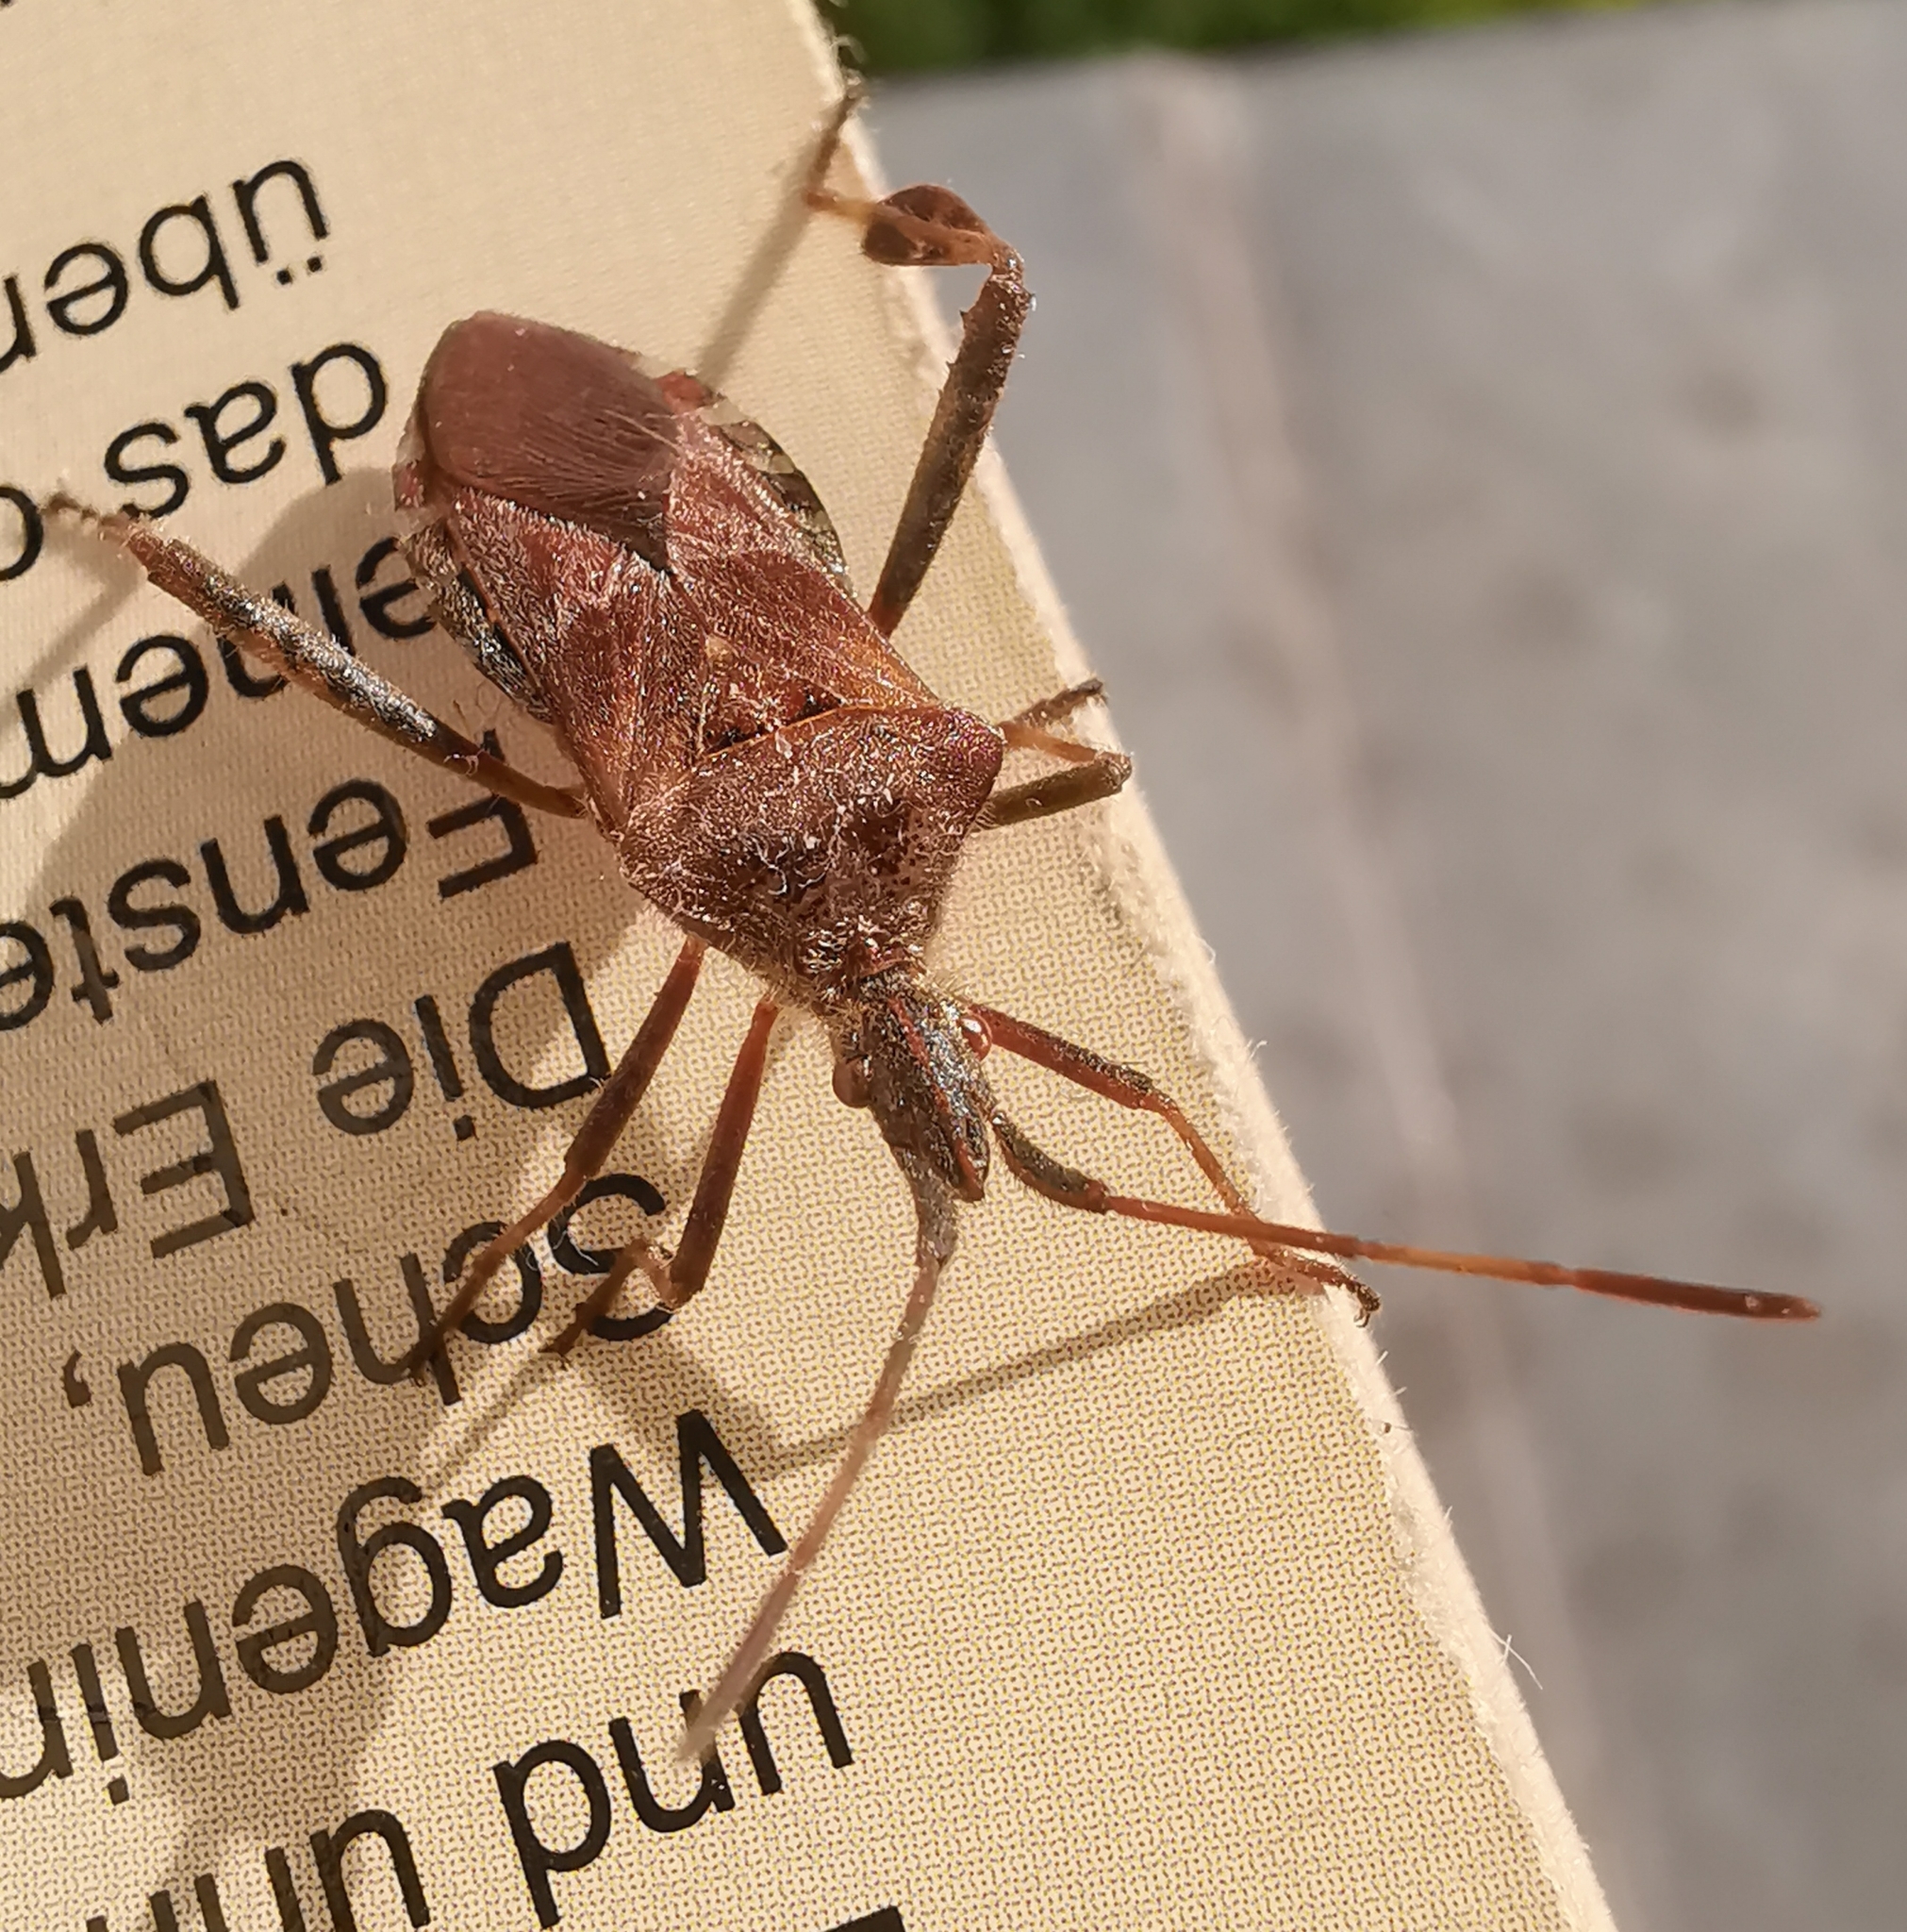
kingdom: Animalia
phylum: Arthropoda
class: Insecta
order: Hemiptera
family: Coreidae
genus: Leptoglossus
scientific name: Leptoglossus occidentalis
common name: Western conifer-seed bug
